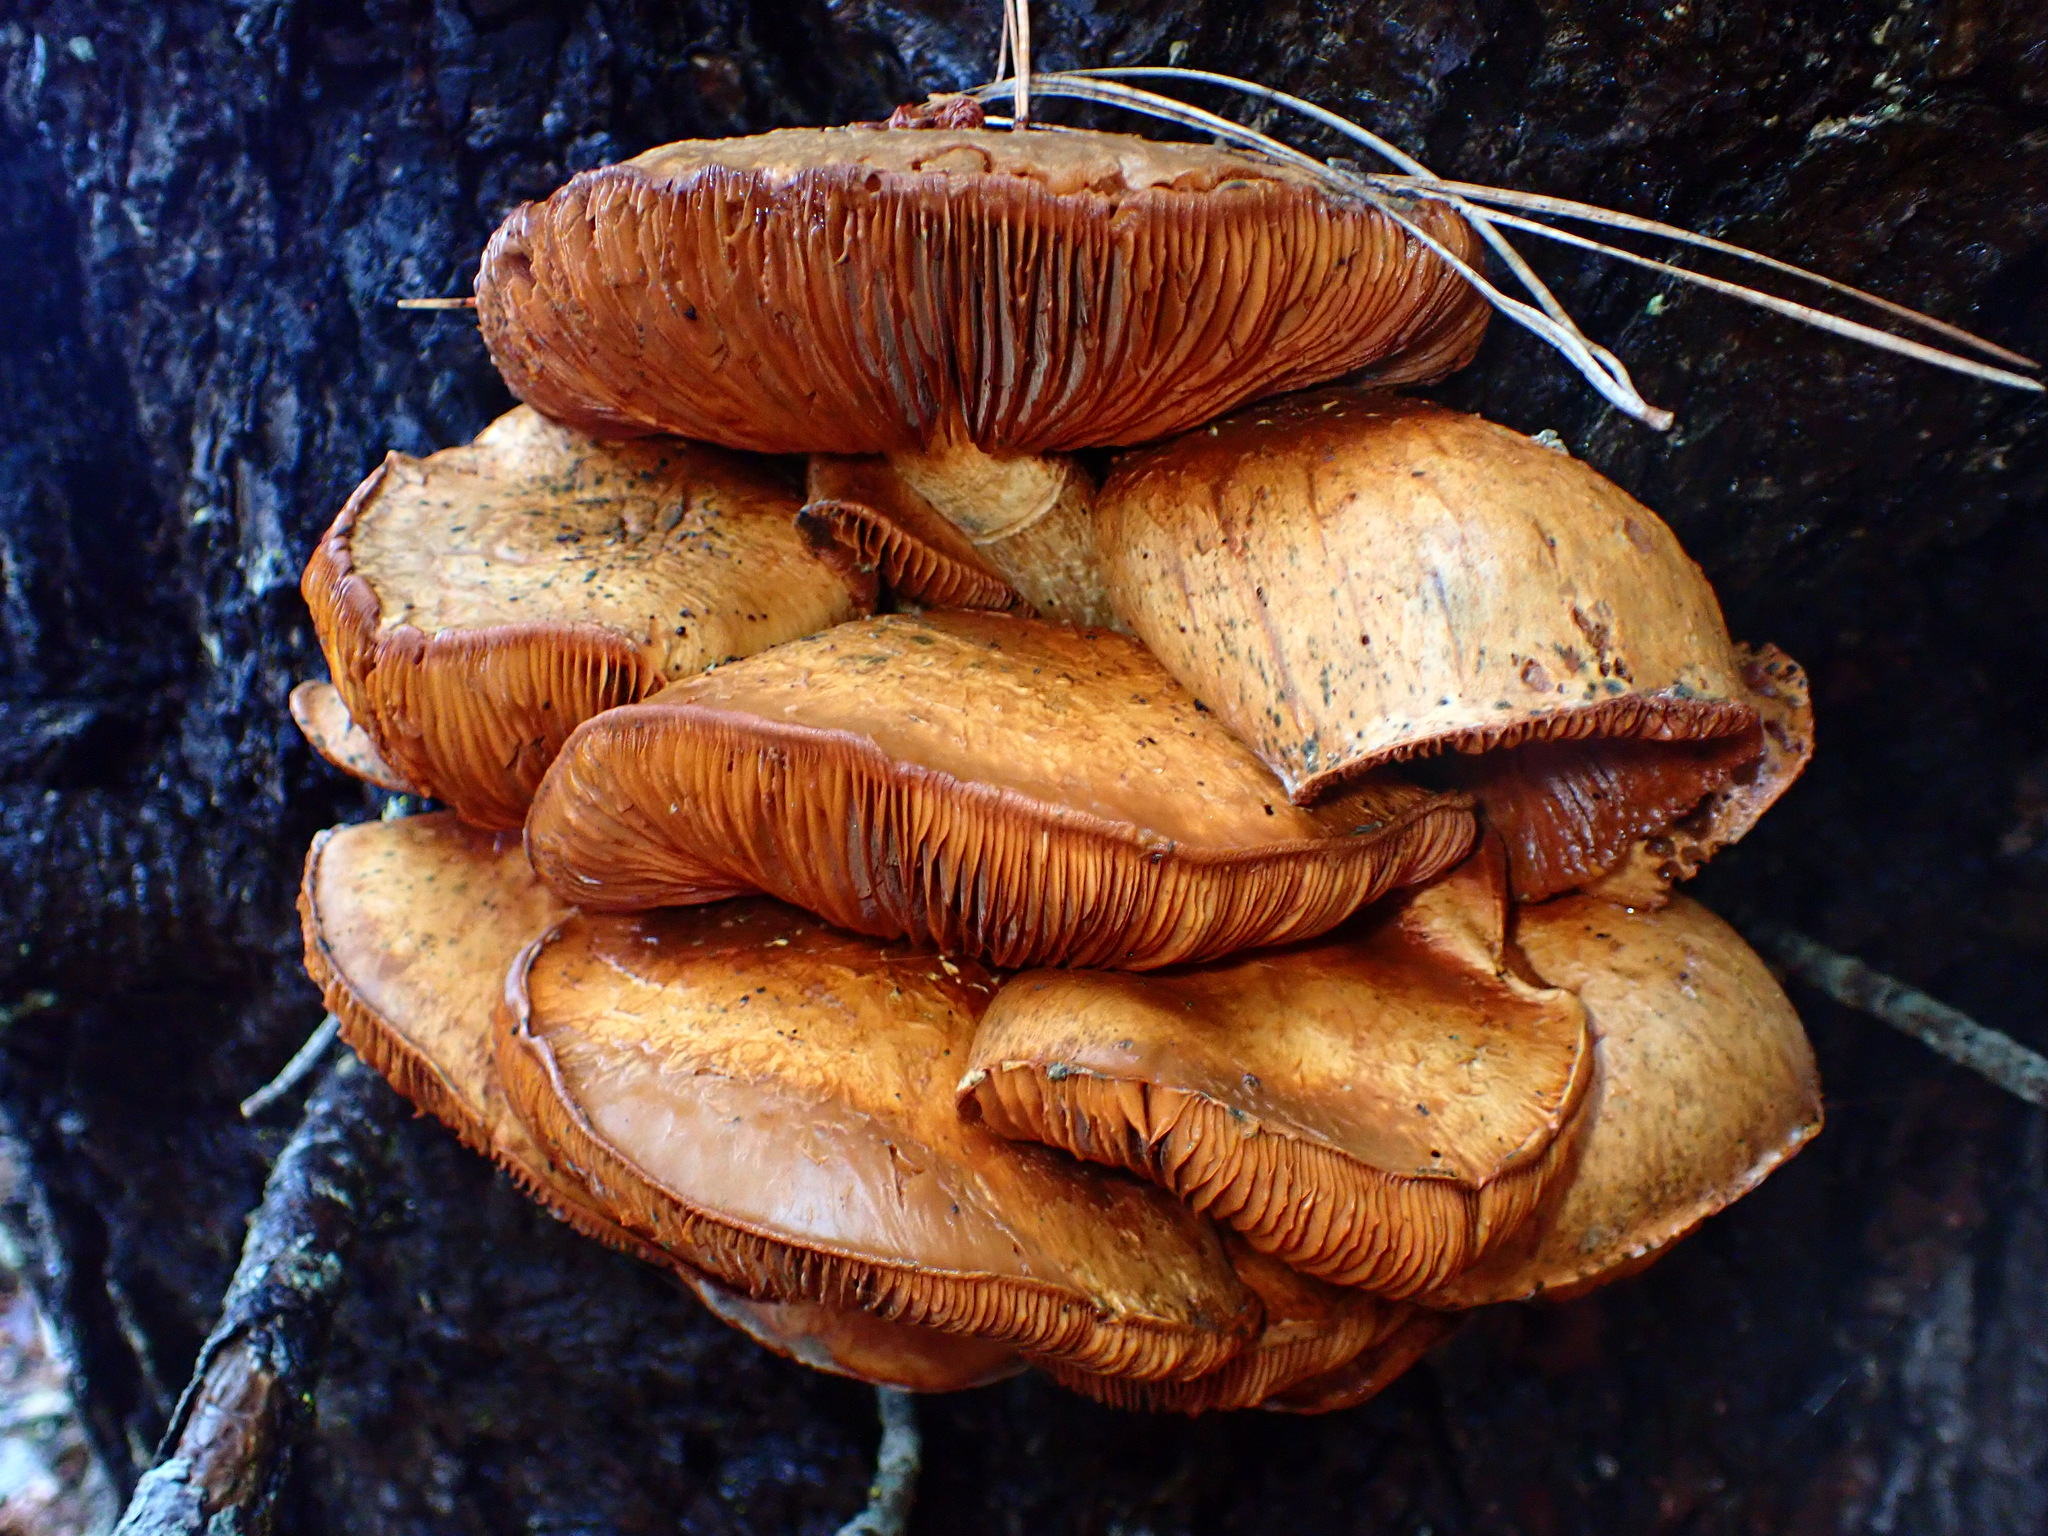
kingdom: Fungi
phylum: Basidiomycota
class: Agaricomycetes
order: Agaricales
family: Hymenogastraceae
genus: Gymnopilus
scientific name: Gymnopilus ventricosus
